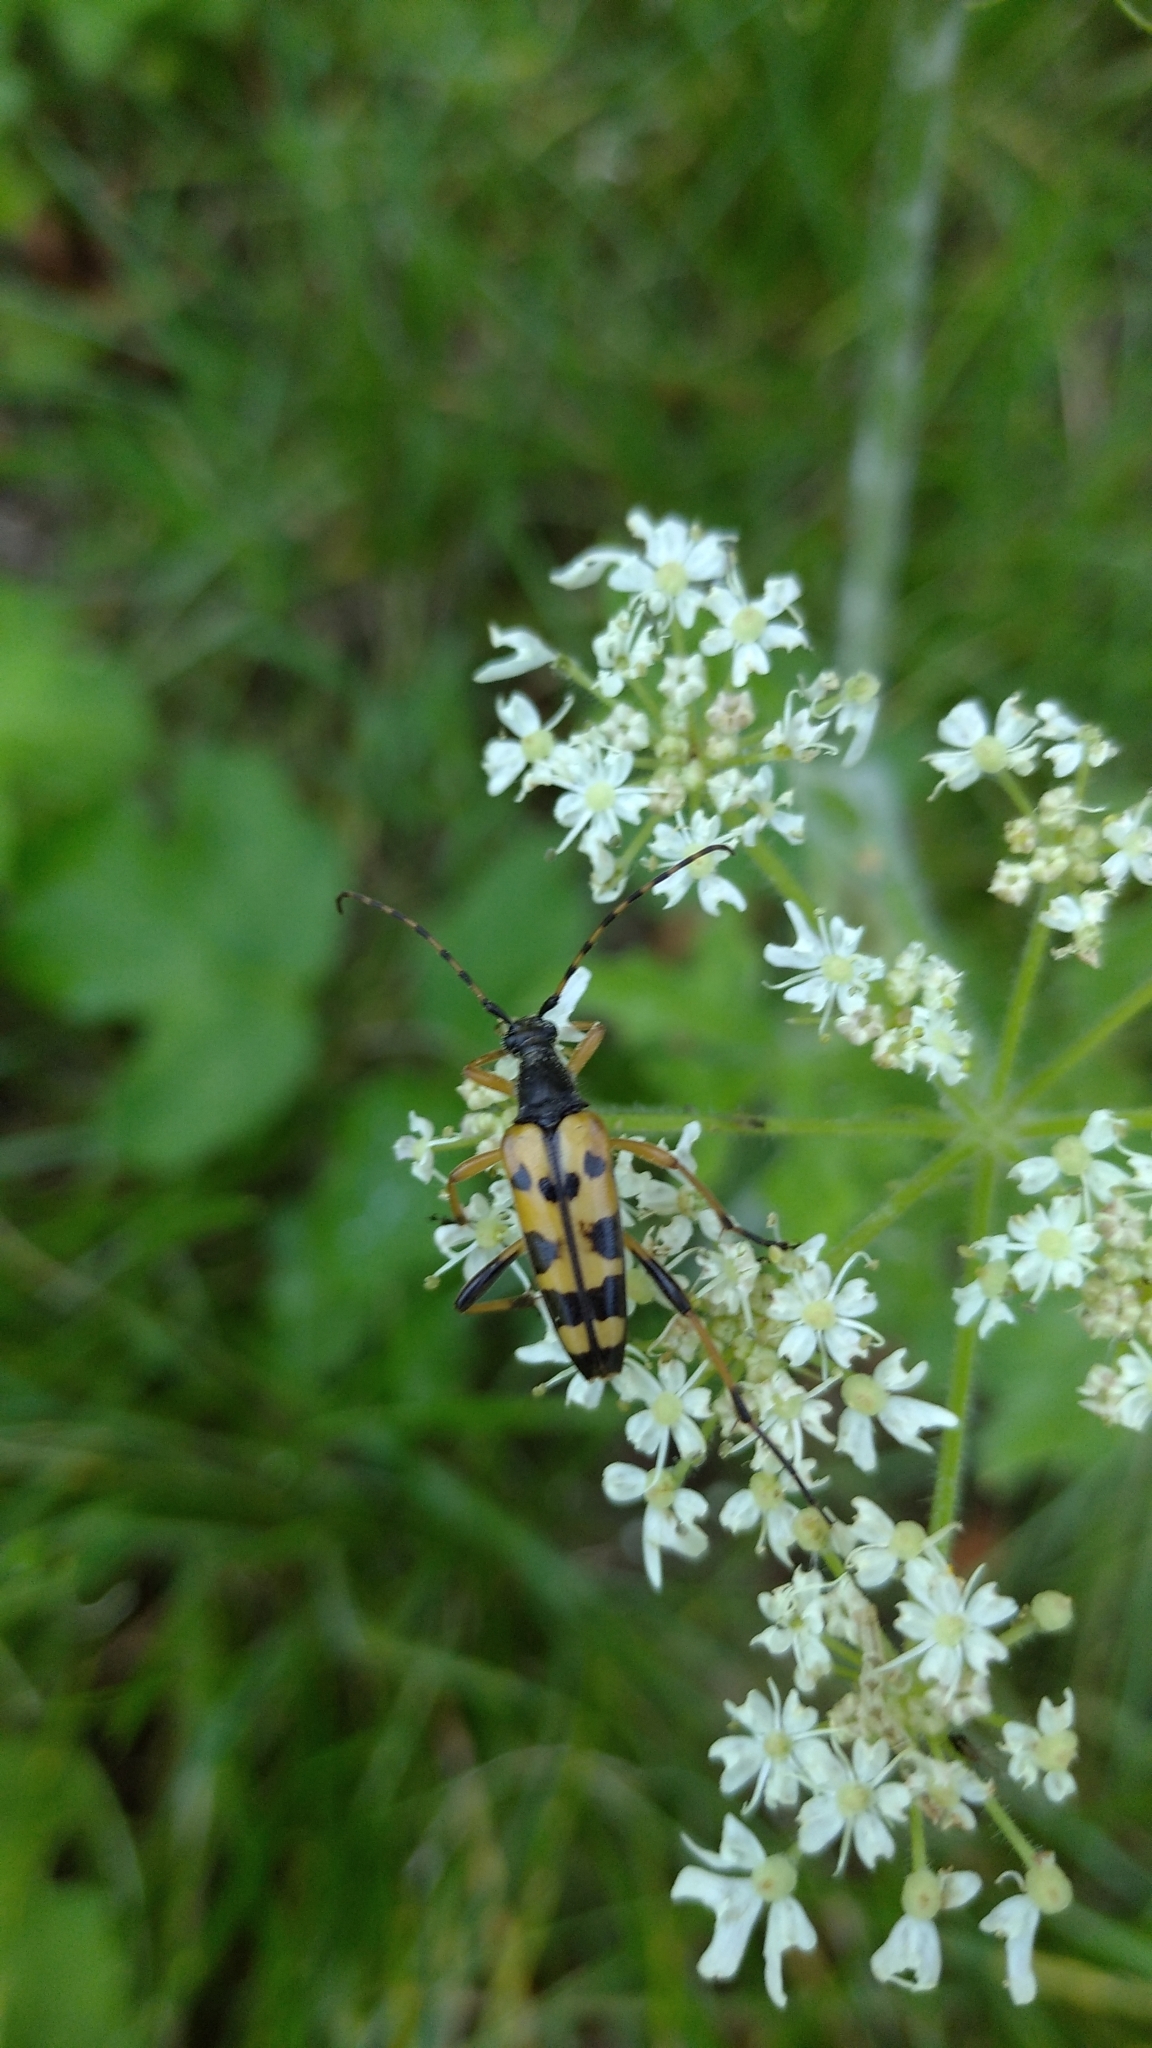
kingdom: Animalia
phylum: Arthropoda
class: Insecta
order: Coleoptera
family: Cerambycidae
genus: Rutpela
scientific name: Rutpela maculata
